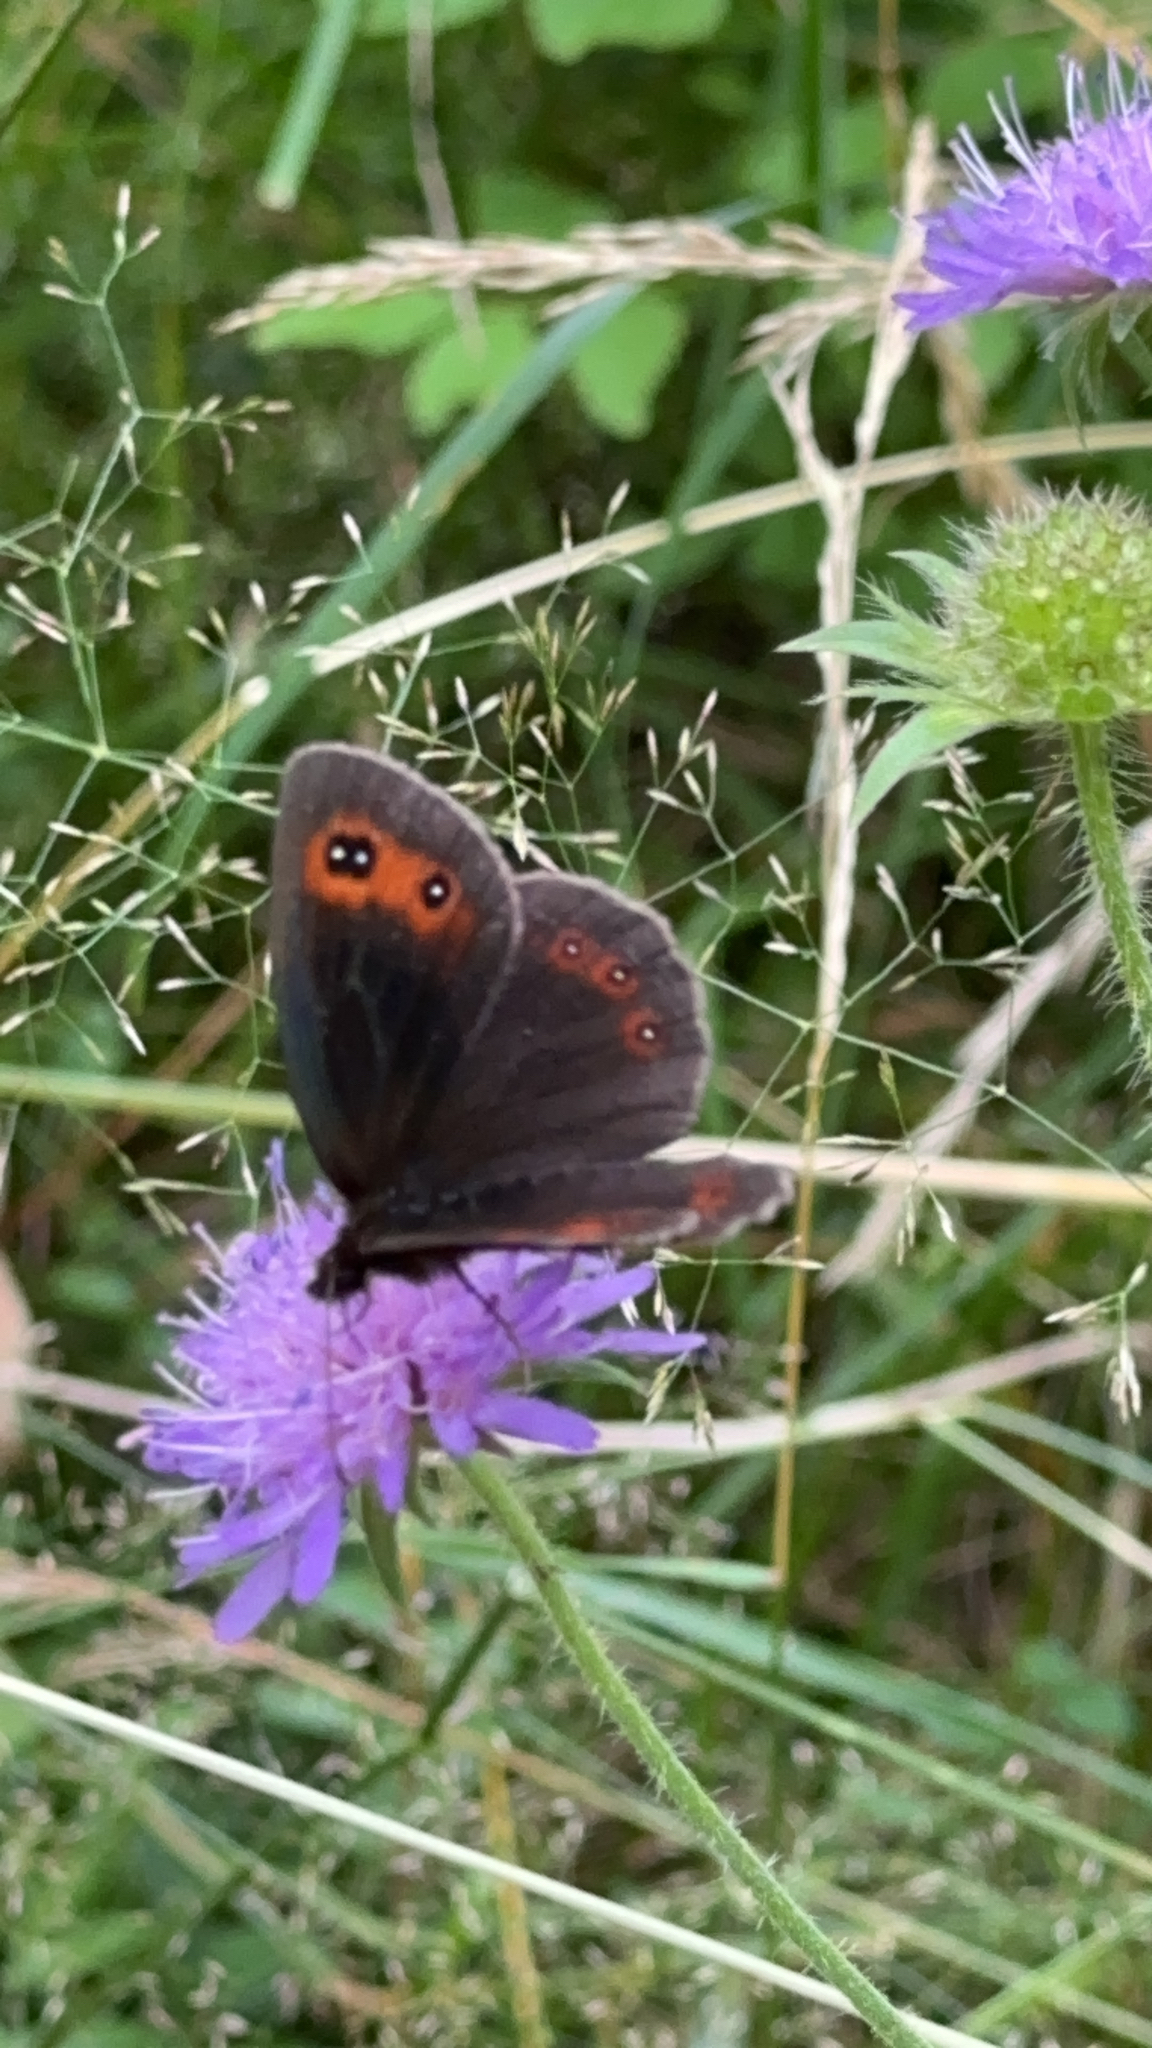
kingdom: Animalia
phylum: Arthropoda
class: Insecta
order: Lepidoptera
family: Nymphalidae
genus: Erebia
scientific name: Erebia aethiops
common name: Scotch argus
